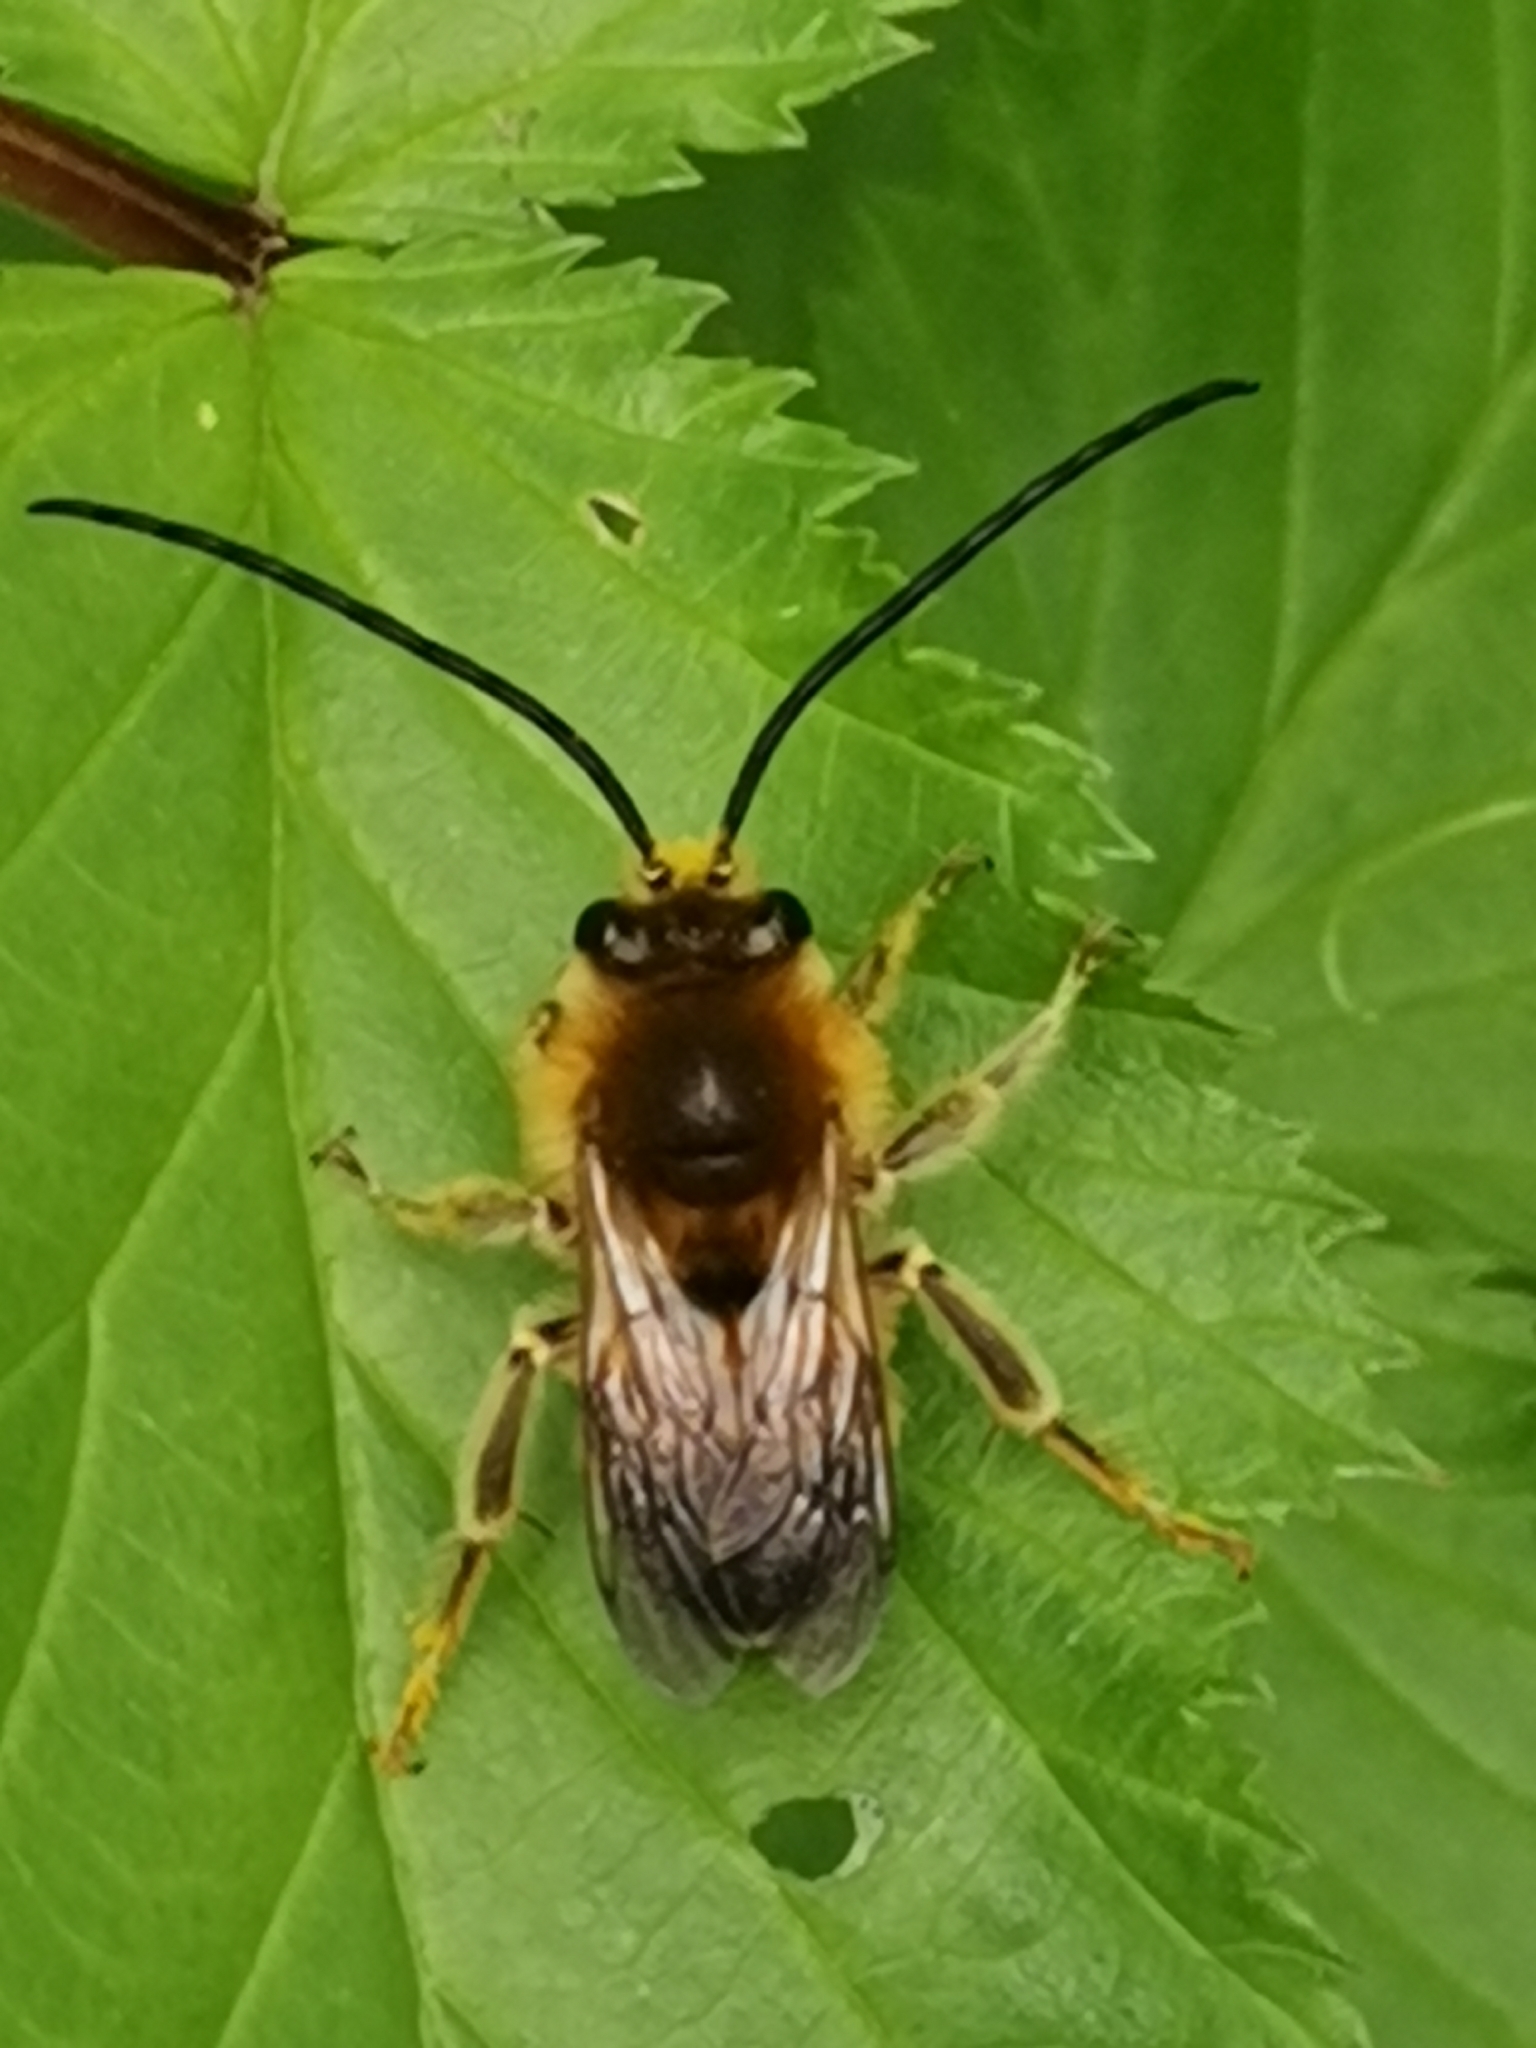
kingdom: Animalia
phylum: Arthropoda
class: Insecta
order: Hymenoptera
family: Apidae
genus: Eucera
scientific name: Eucera longicornis
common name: Long-horned bee
